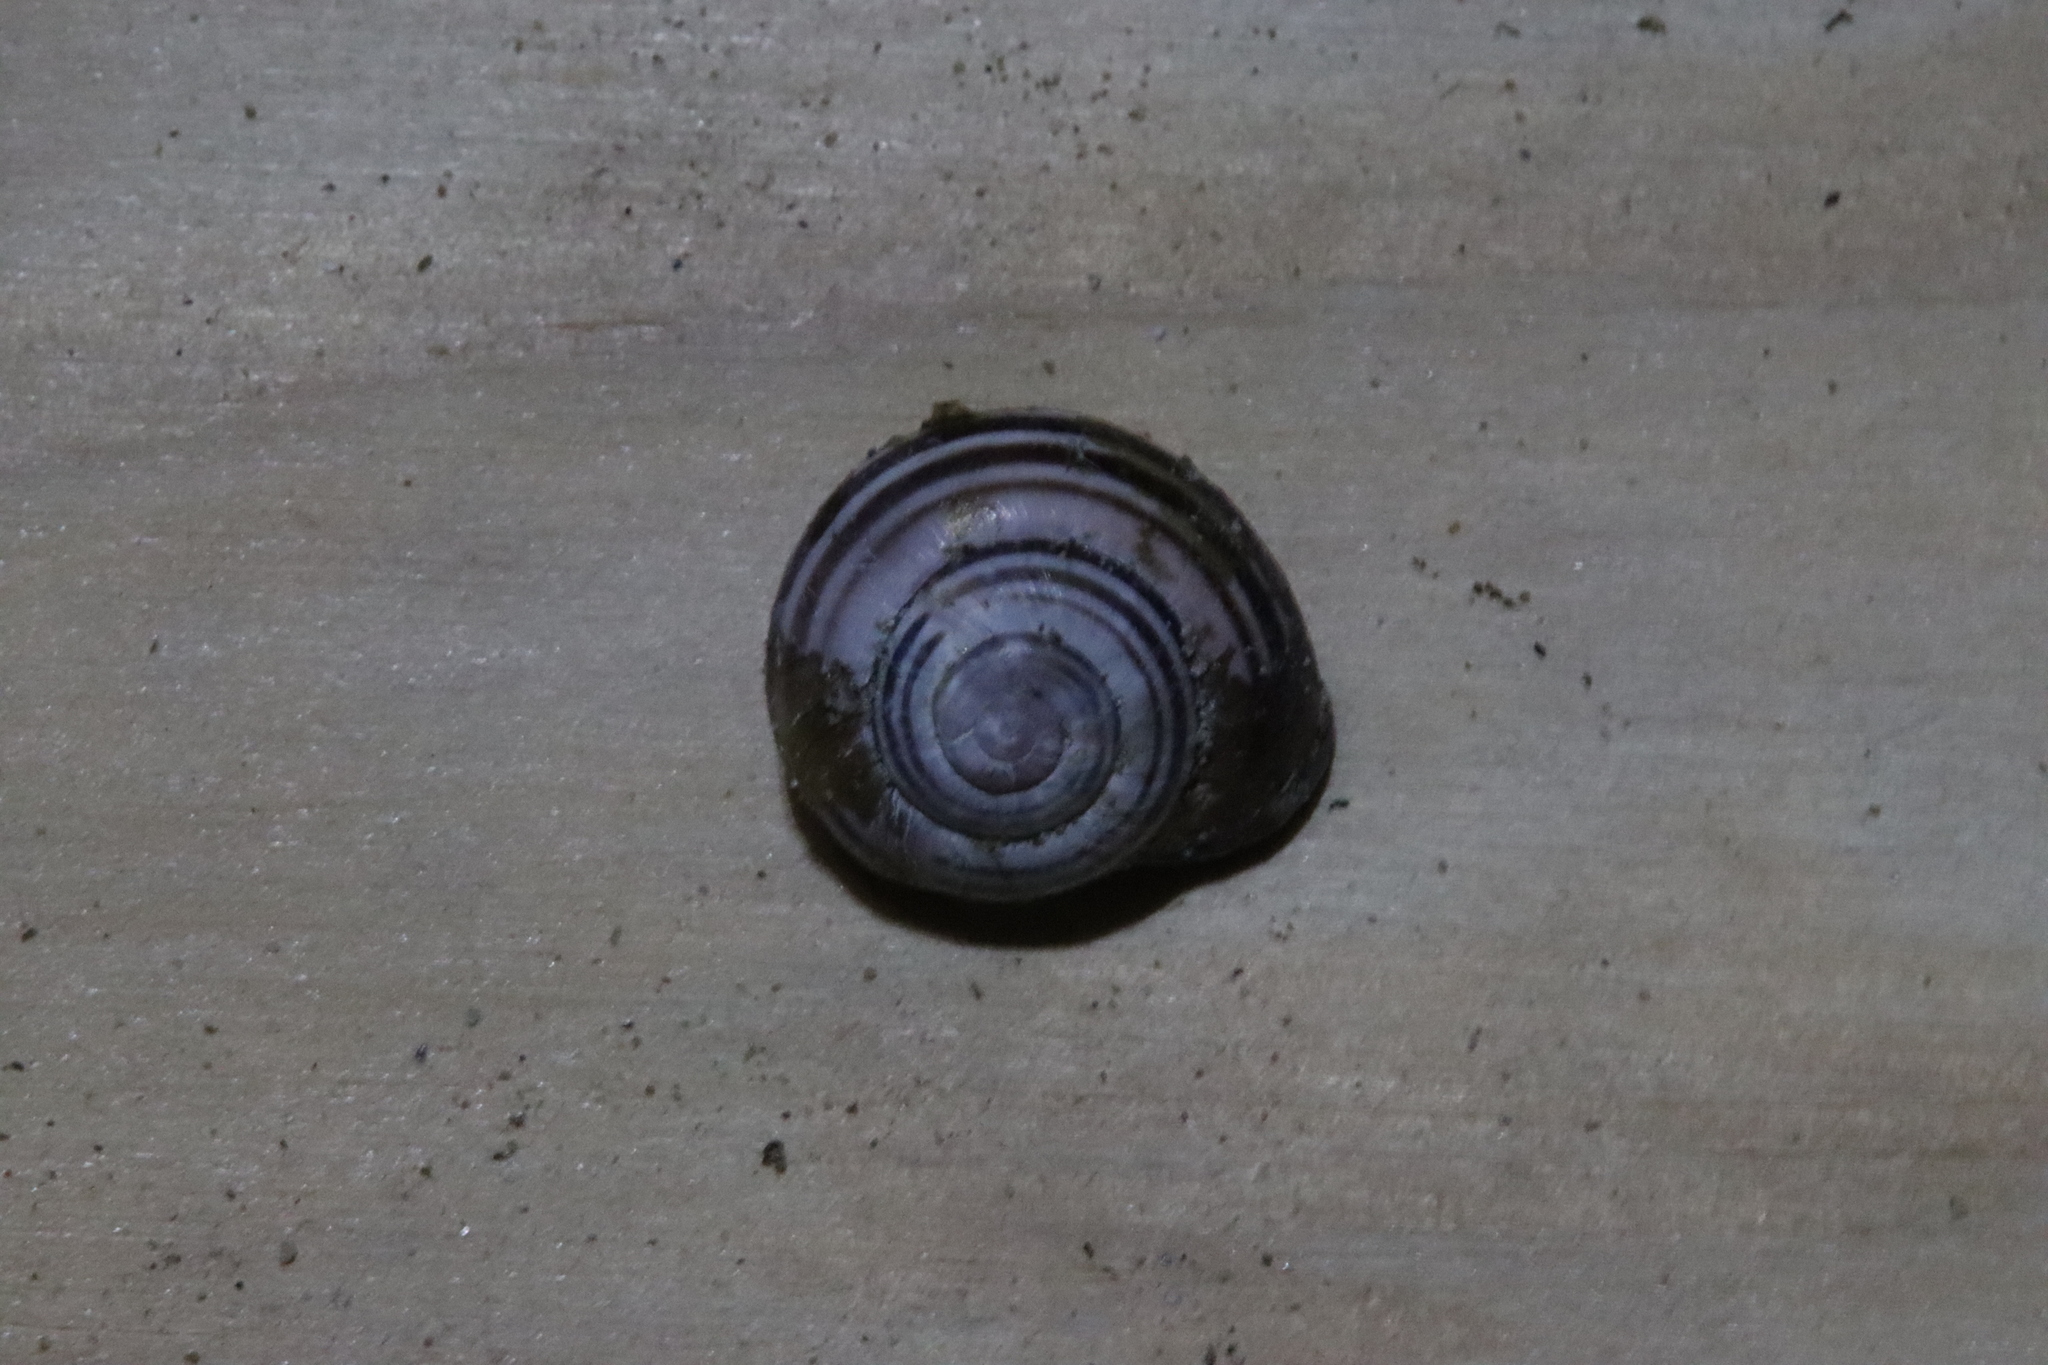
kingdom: Animalia
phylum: Mollusca
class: Gastropoda
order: Stylommatophora
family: Helicidae
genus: Cepaea
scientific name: Cepaea nemoralis
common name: Grovesnail
